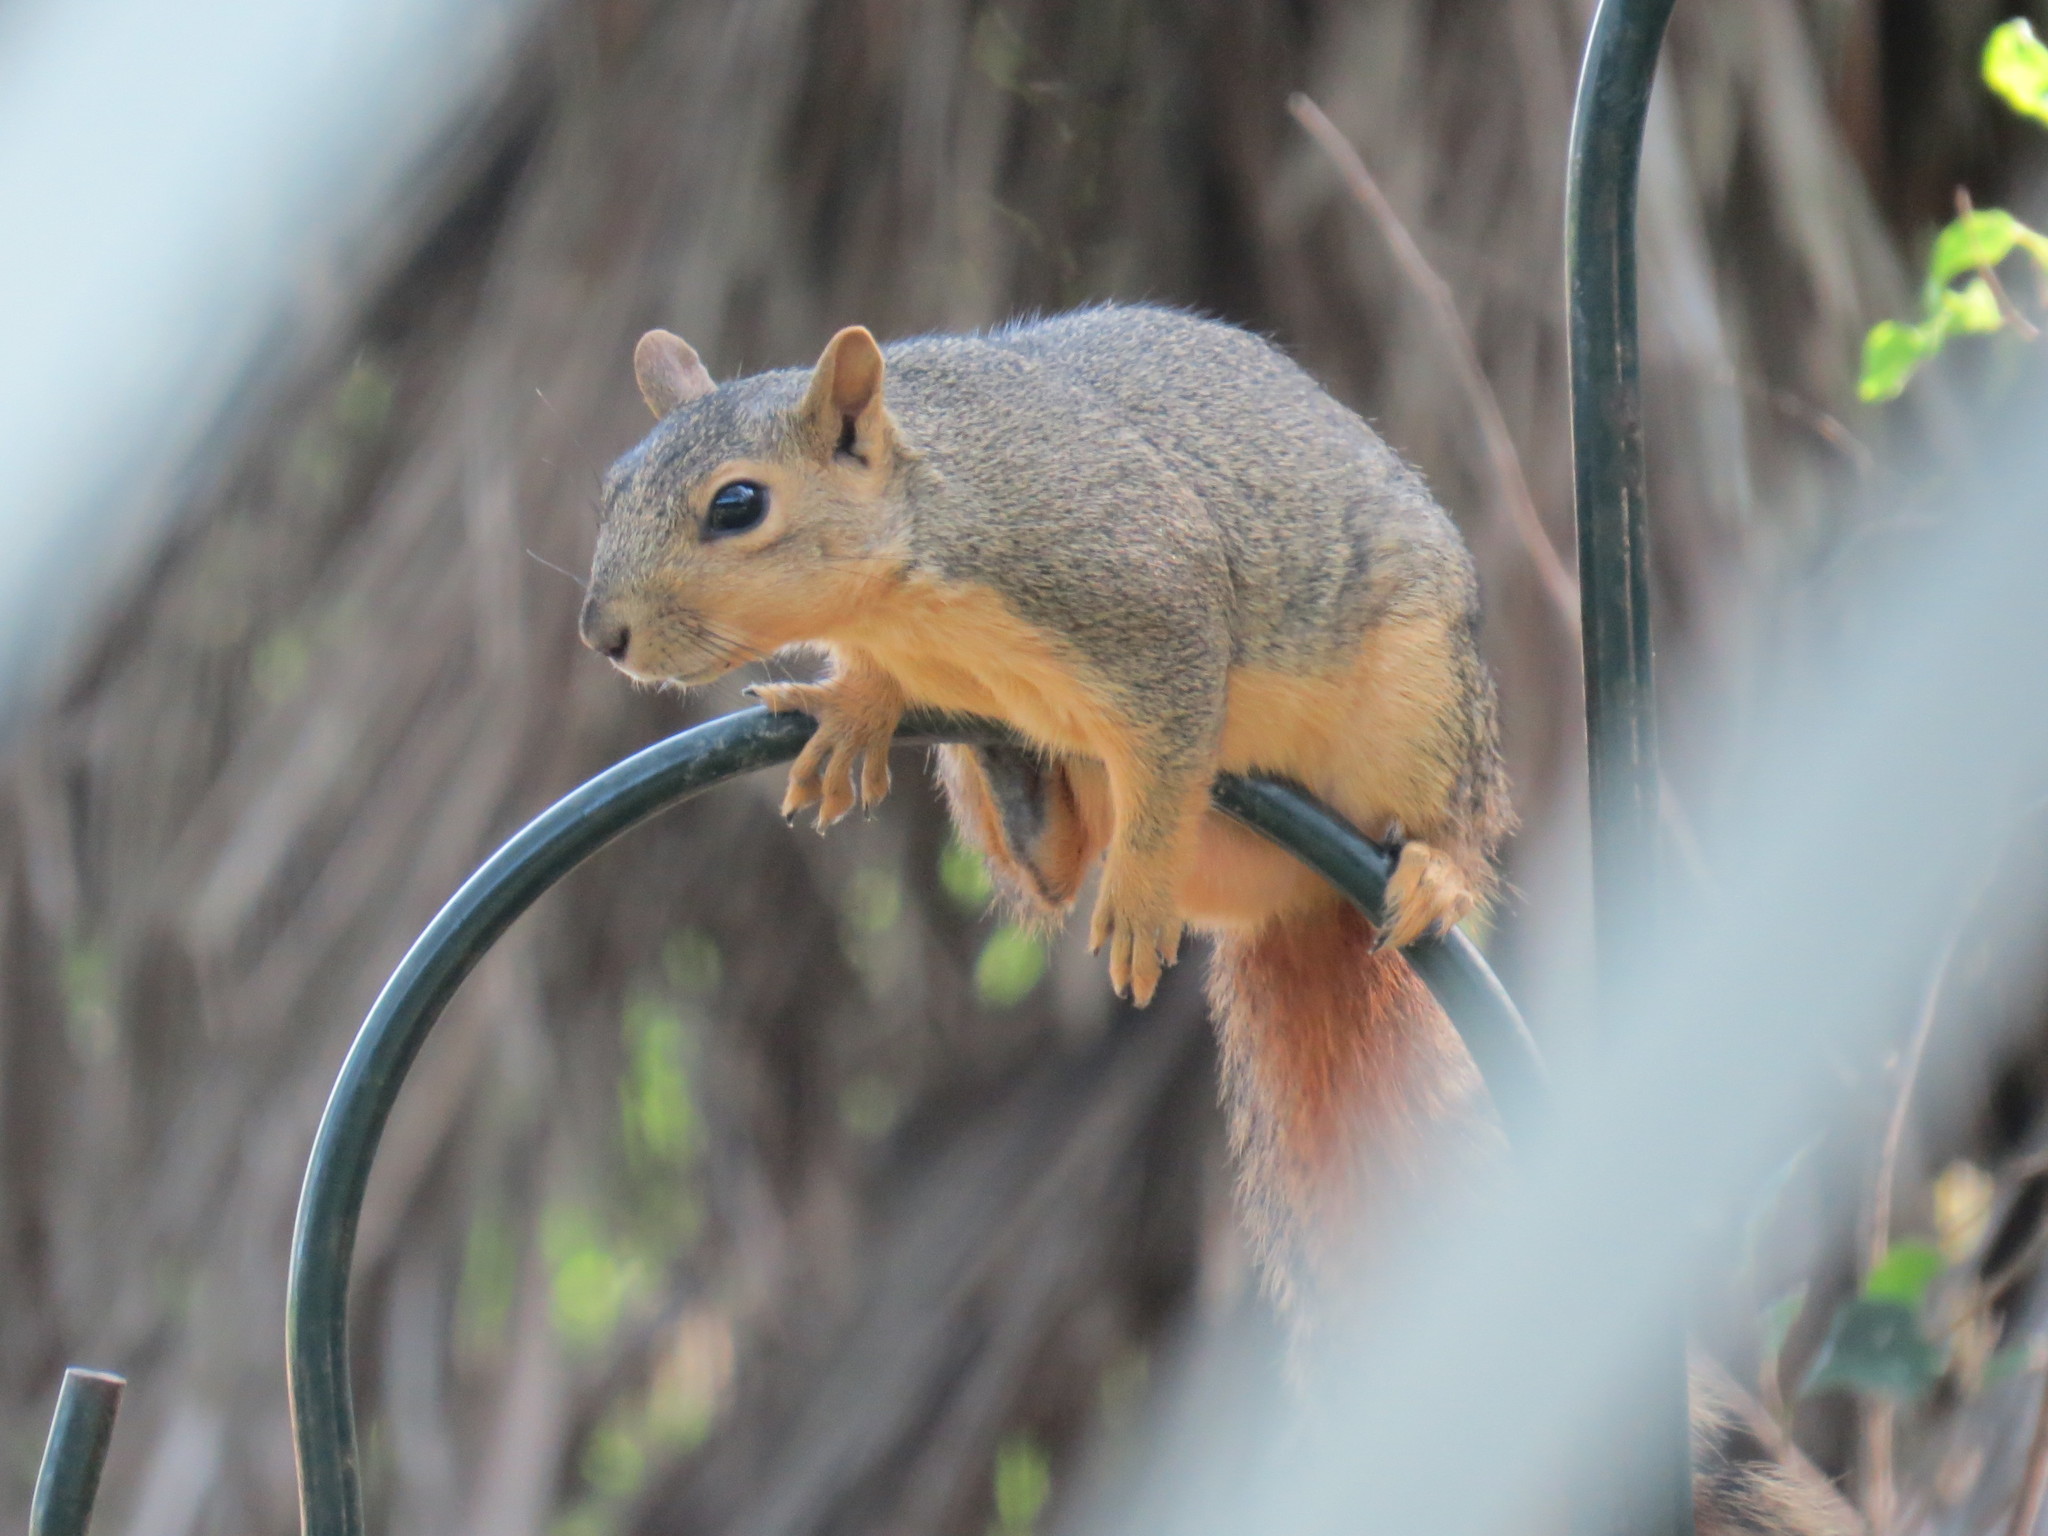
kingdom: Animalia
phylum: Chordata
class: Mammalia
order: Rodentia
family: Sciuridae
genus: Sciurus
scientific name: Sciurus niger
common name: Fox squirrel
